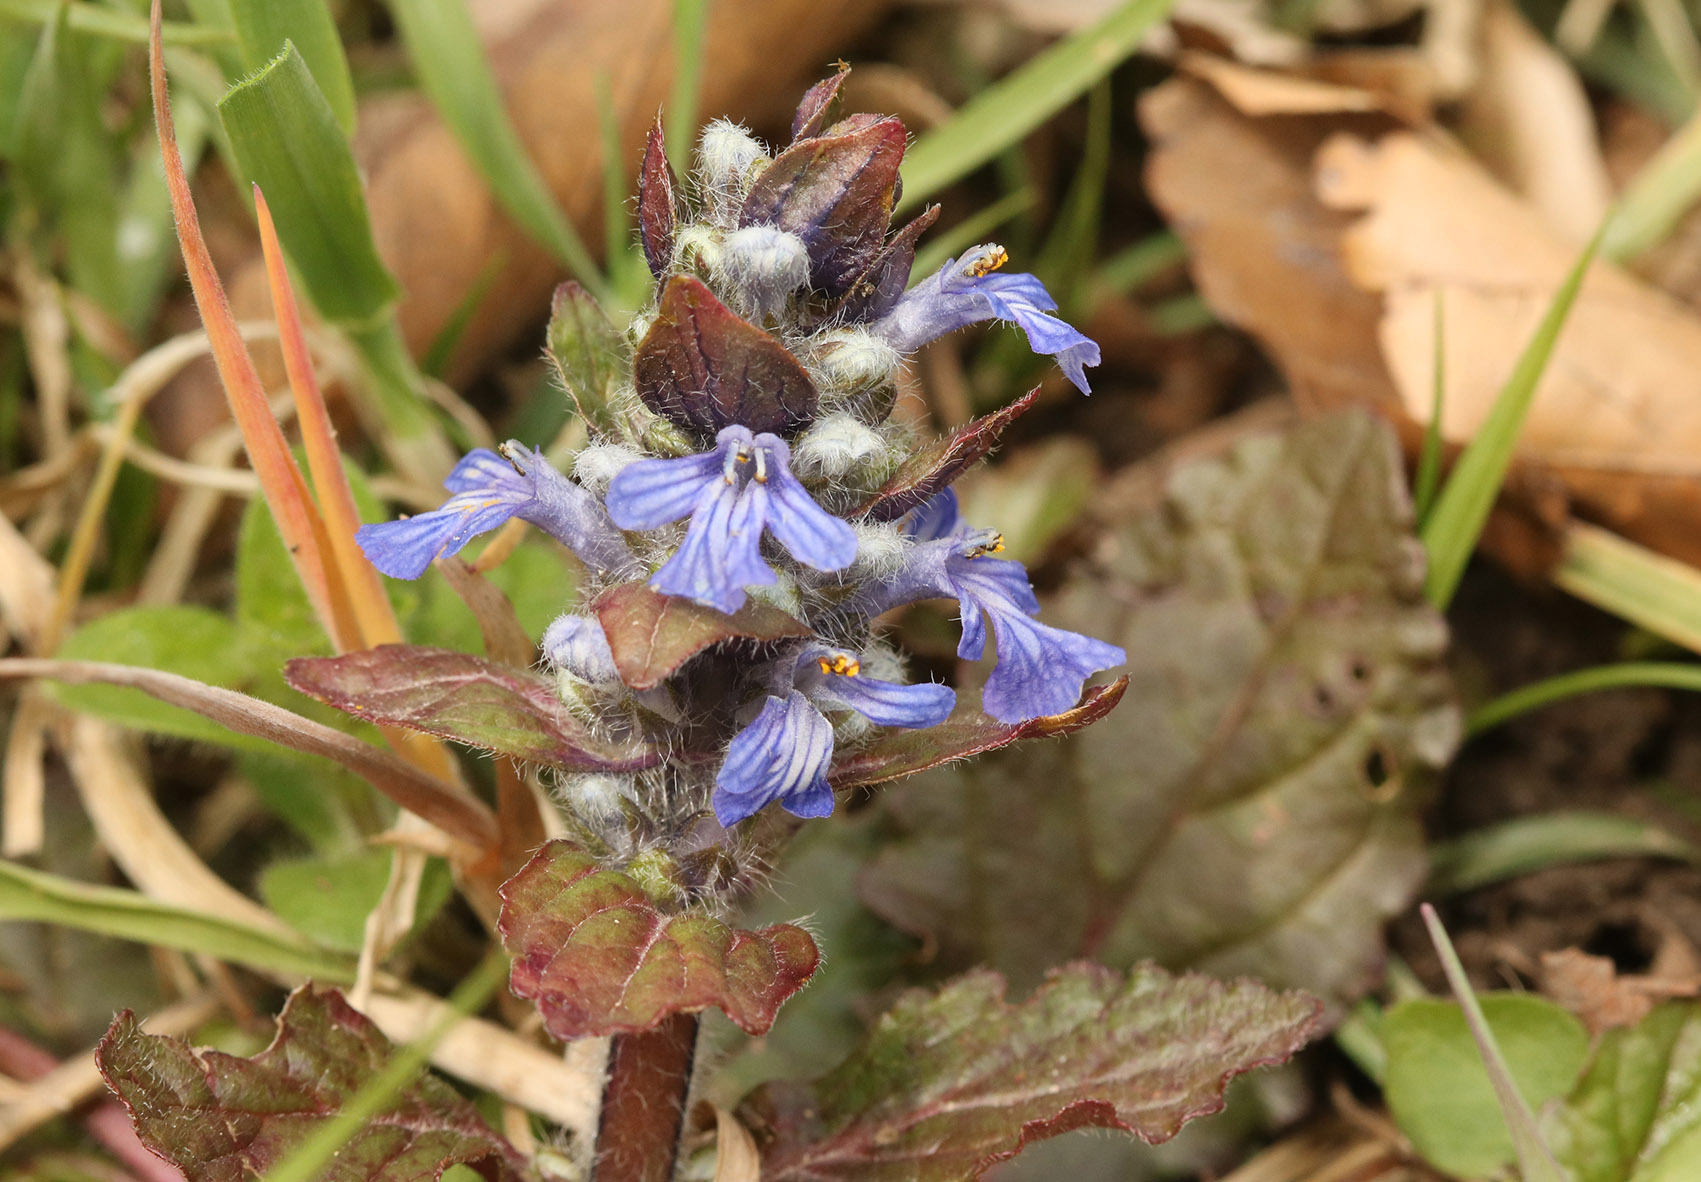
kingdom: Plantae
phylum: Tracheophyta
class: Magnoliopsida
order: Lamiales
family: Lamiaceae
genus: Ajuga
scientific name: Ajuga reptans
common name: Bugle
